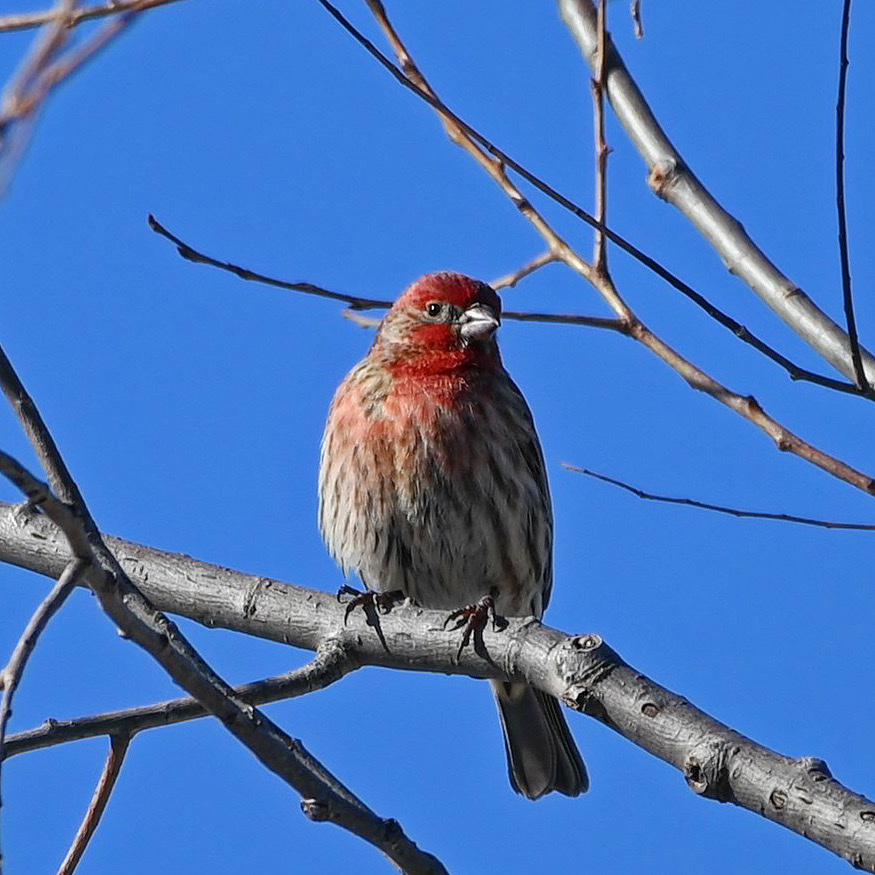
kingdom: Animalia
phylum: Chordata
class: Aves
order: Passeriformes
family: Fringillidae
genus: Haemorhous
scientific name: Haemorhous mexicanus
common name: House finch
